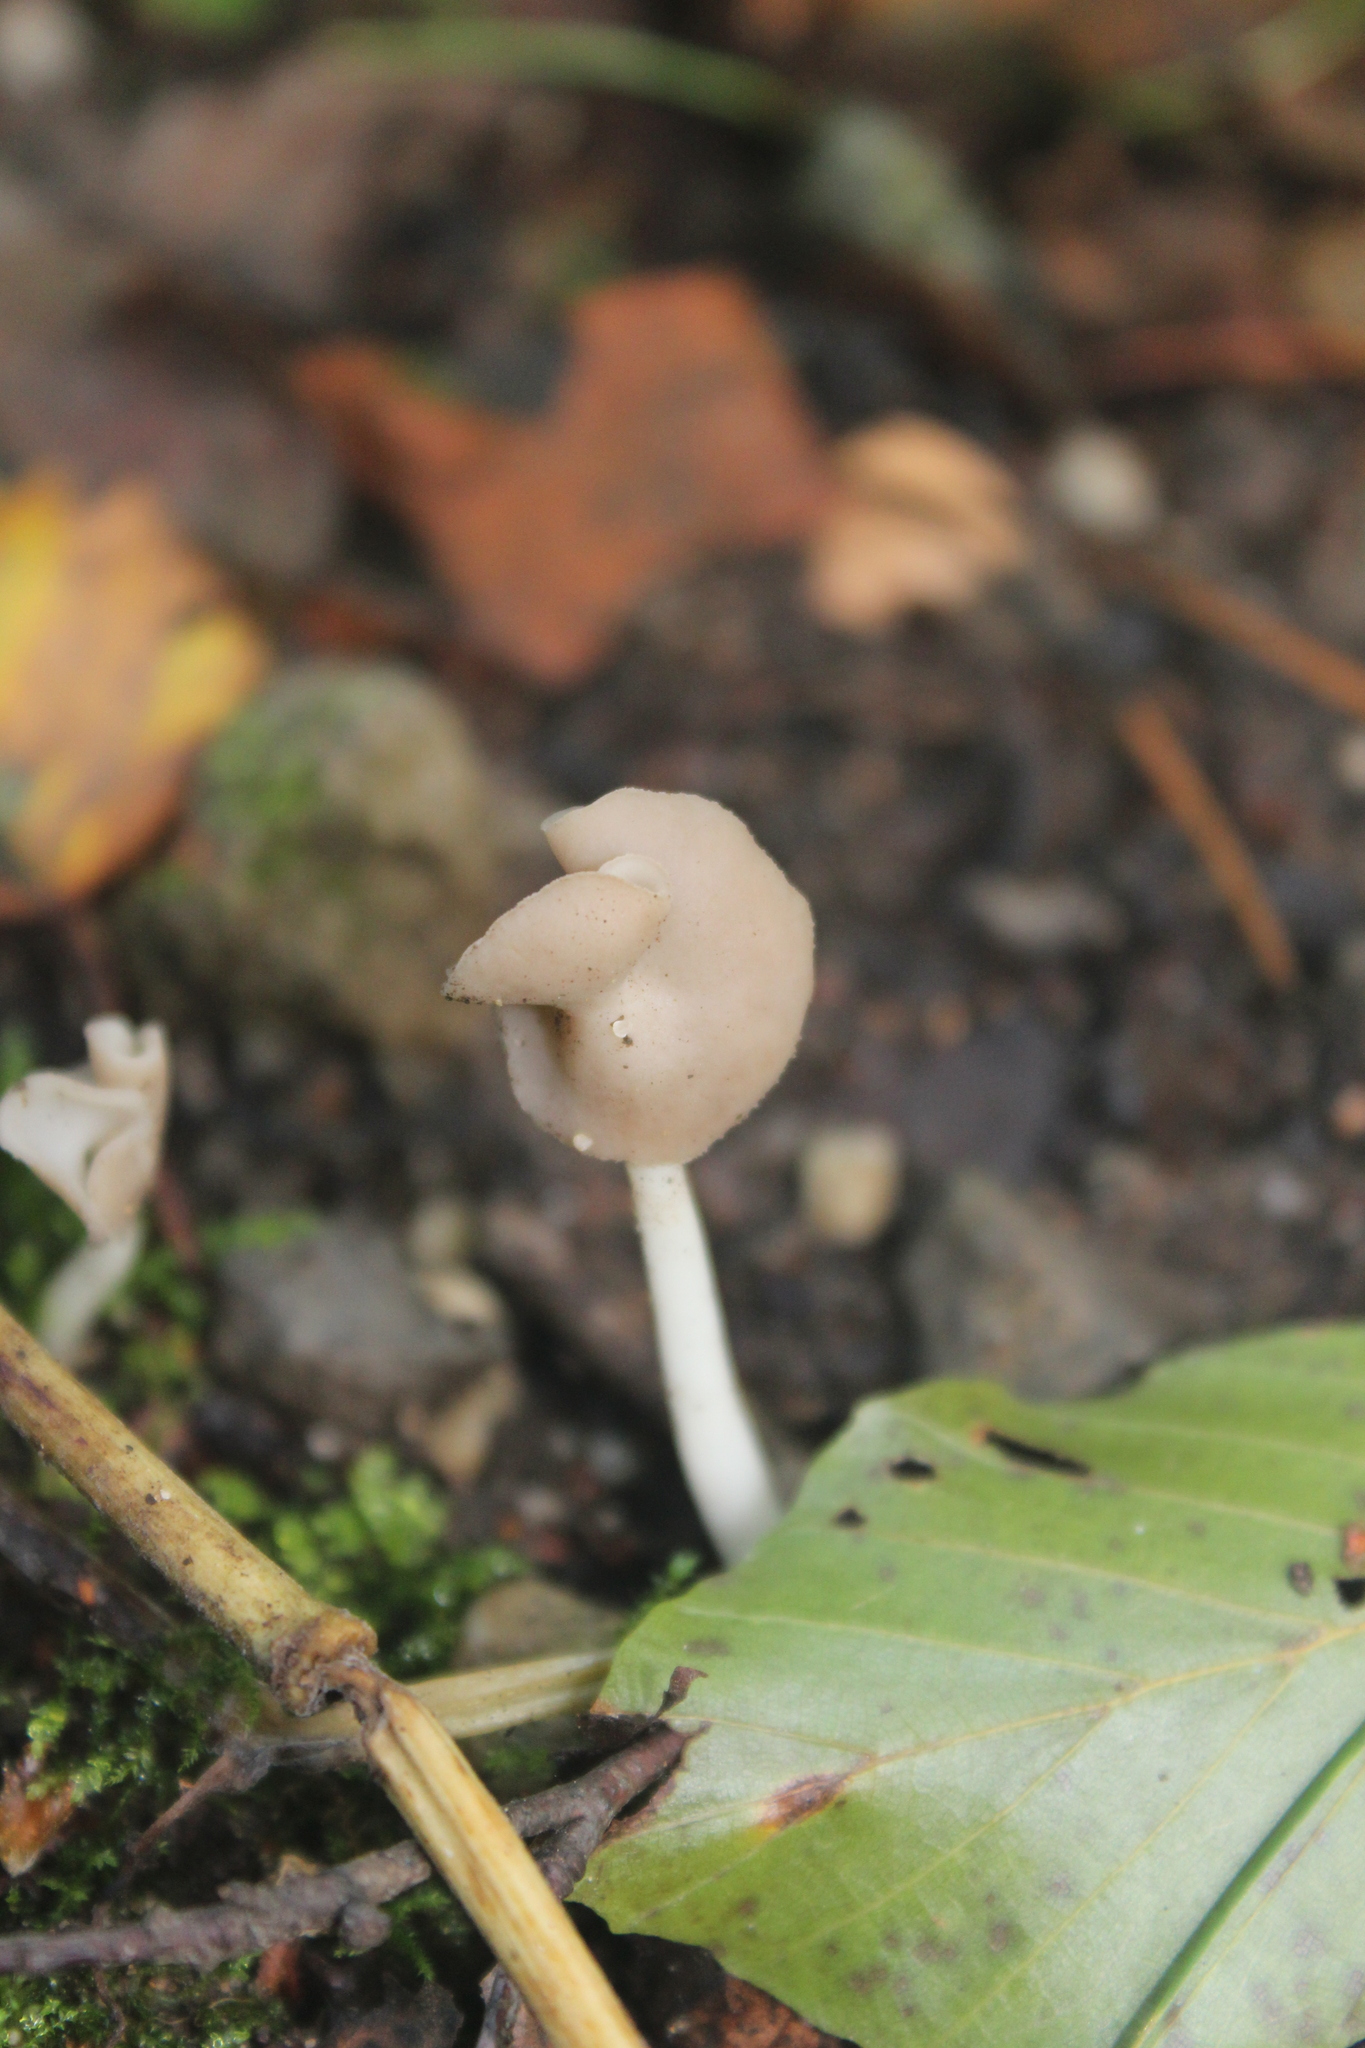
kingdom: Fungi
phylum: Ascomycota
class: Pezizomycetes
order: Pezizales
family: Helvellaceae
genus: Helvella
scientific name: Helvella elastica
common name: Elastic saddle
